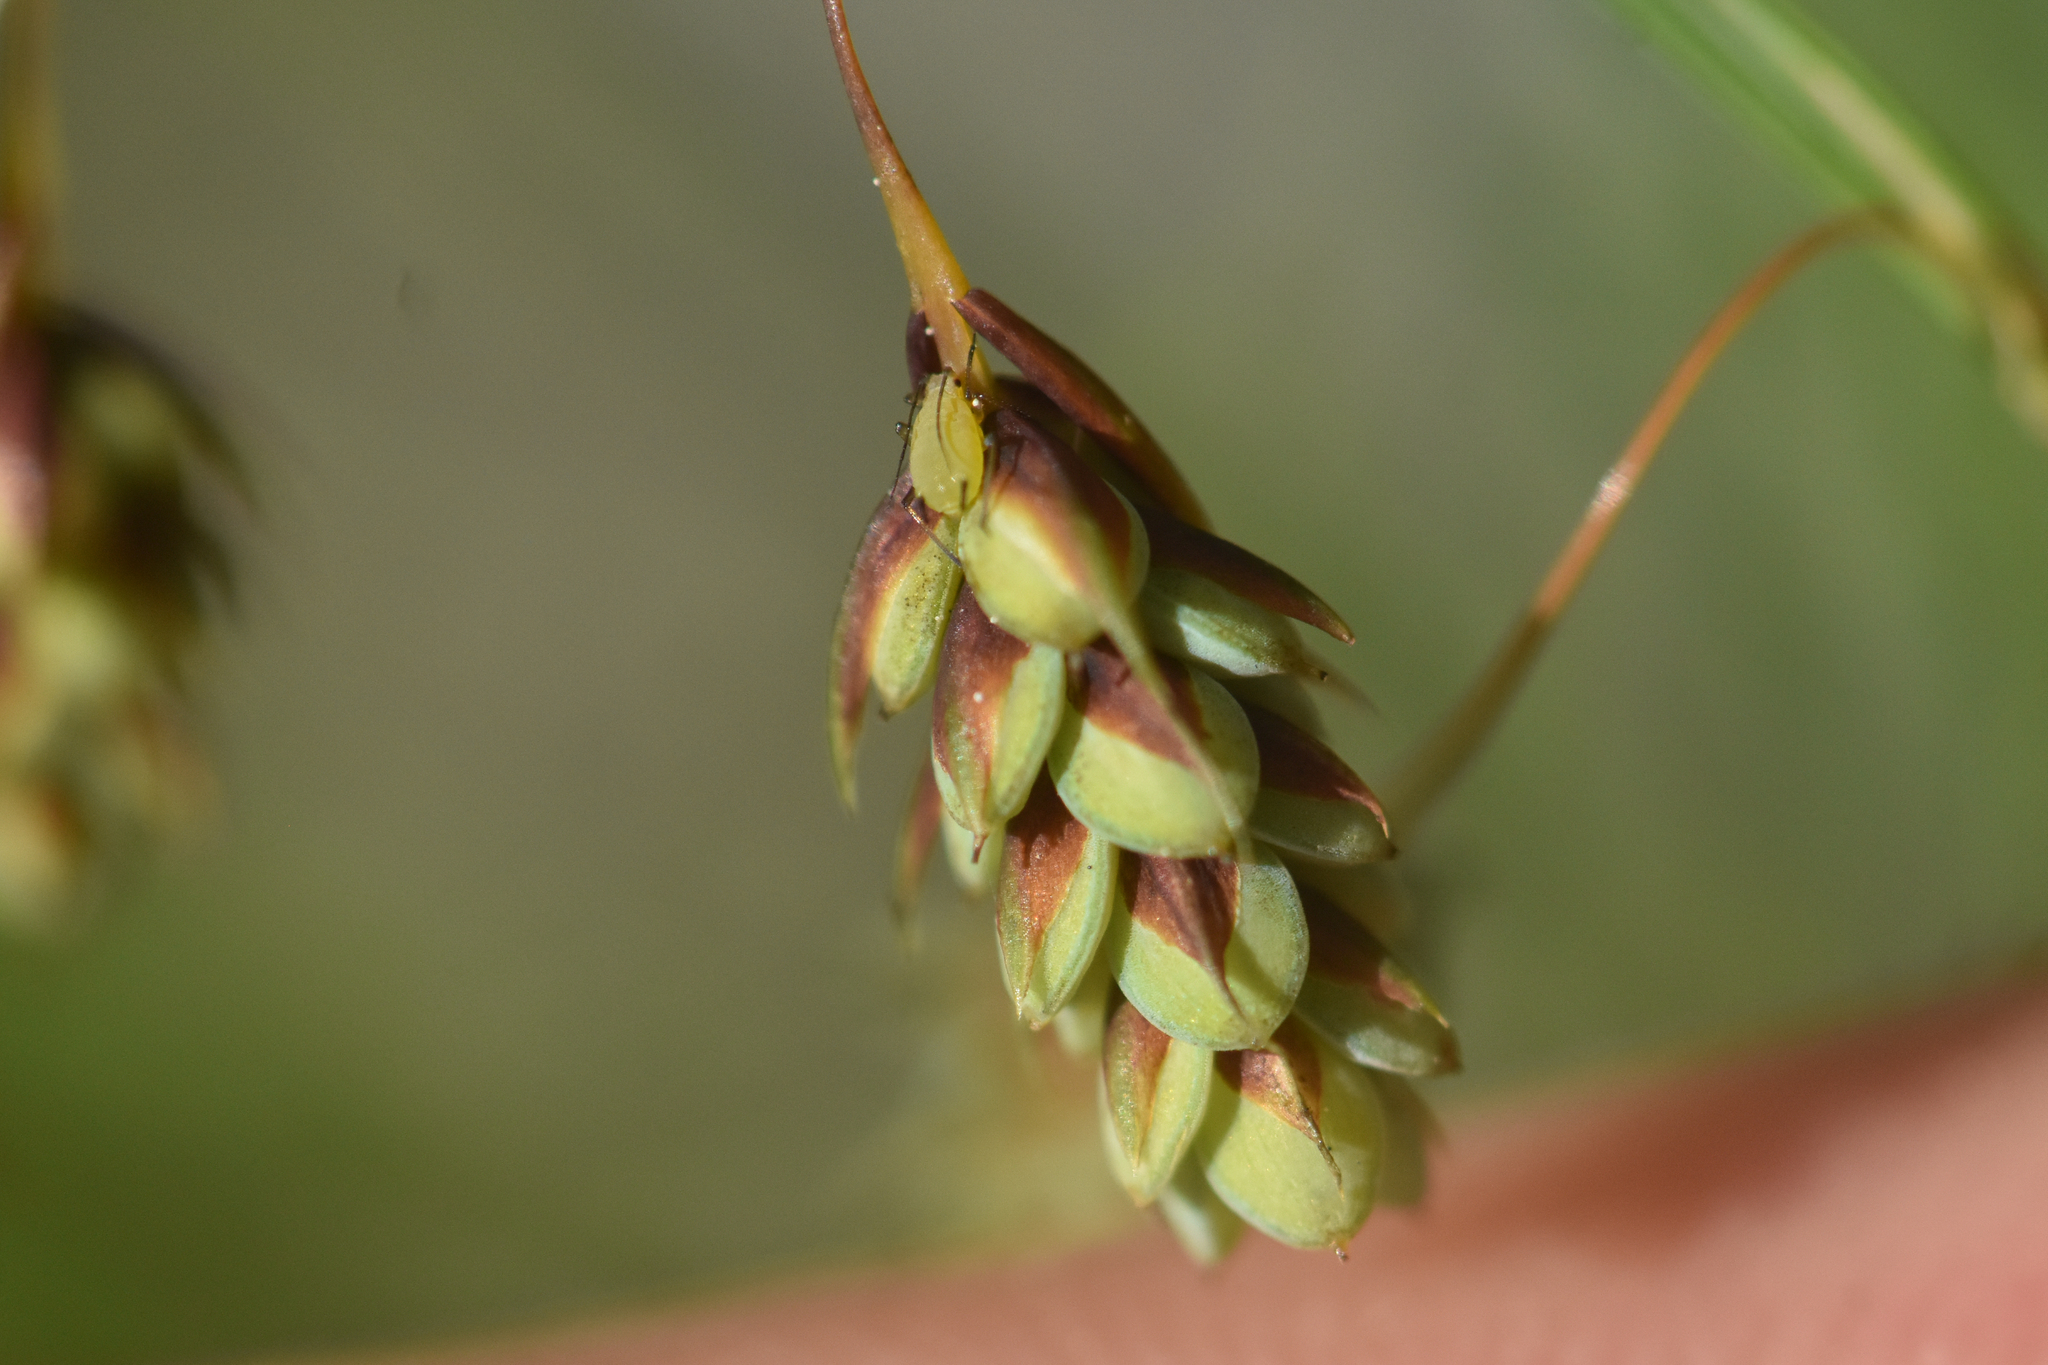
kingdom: Plantae
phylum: Tracheophyta
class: Liliopsida
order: Poales
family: Cyperaceae
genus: Carex
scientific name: Carex magellanica
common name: Bog sedge
